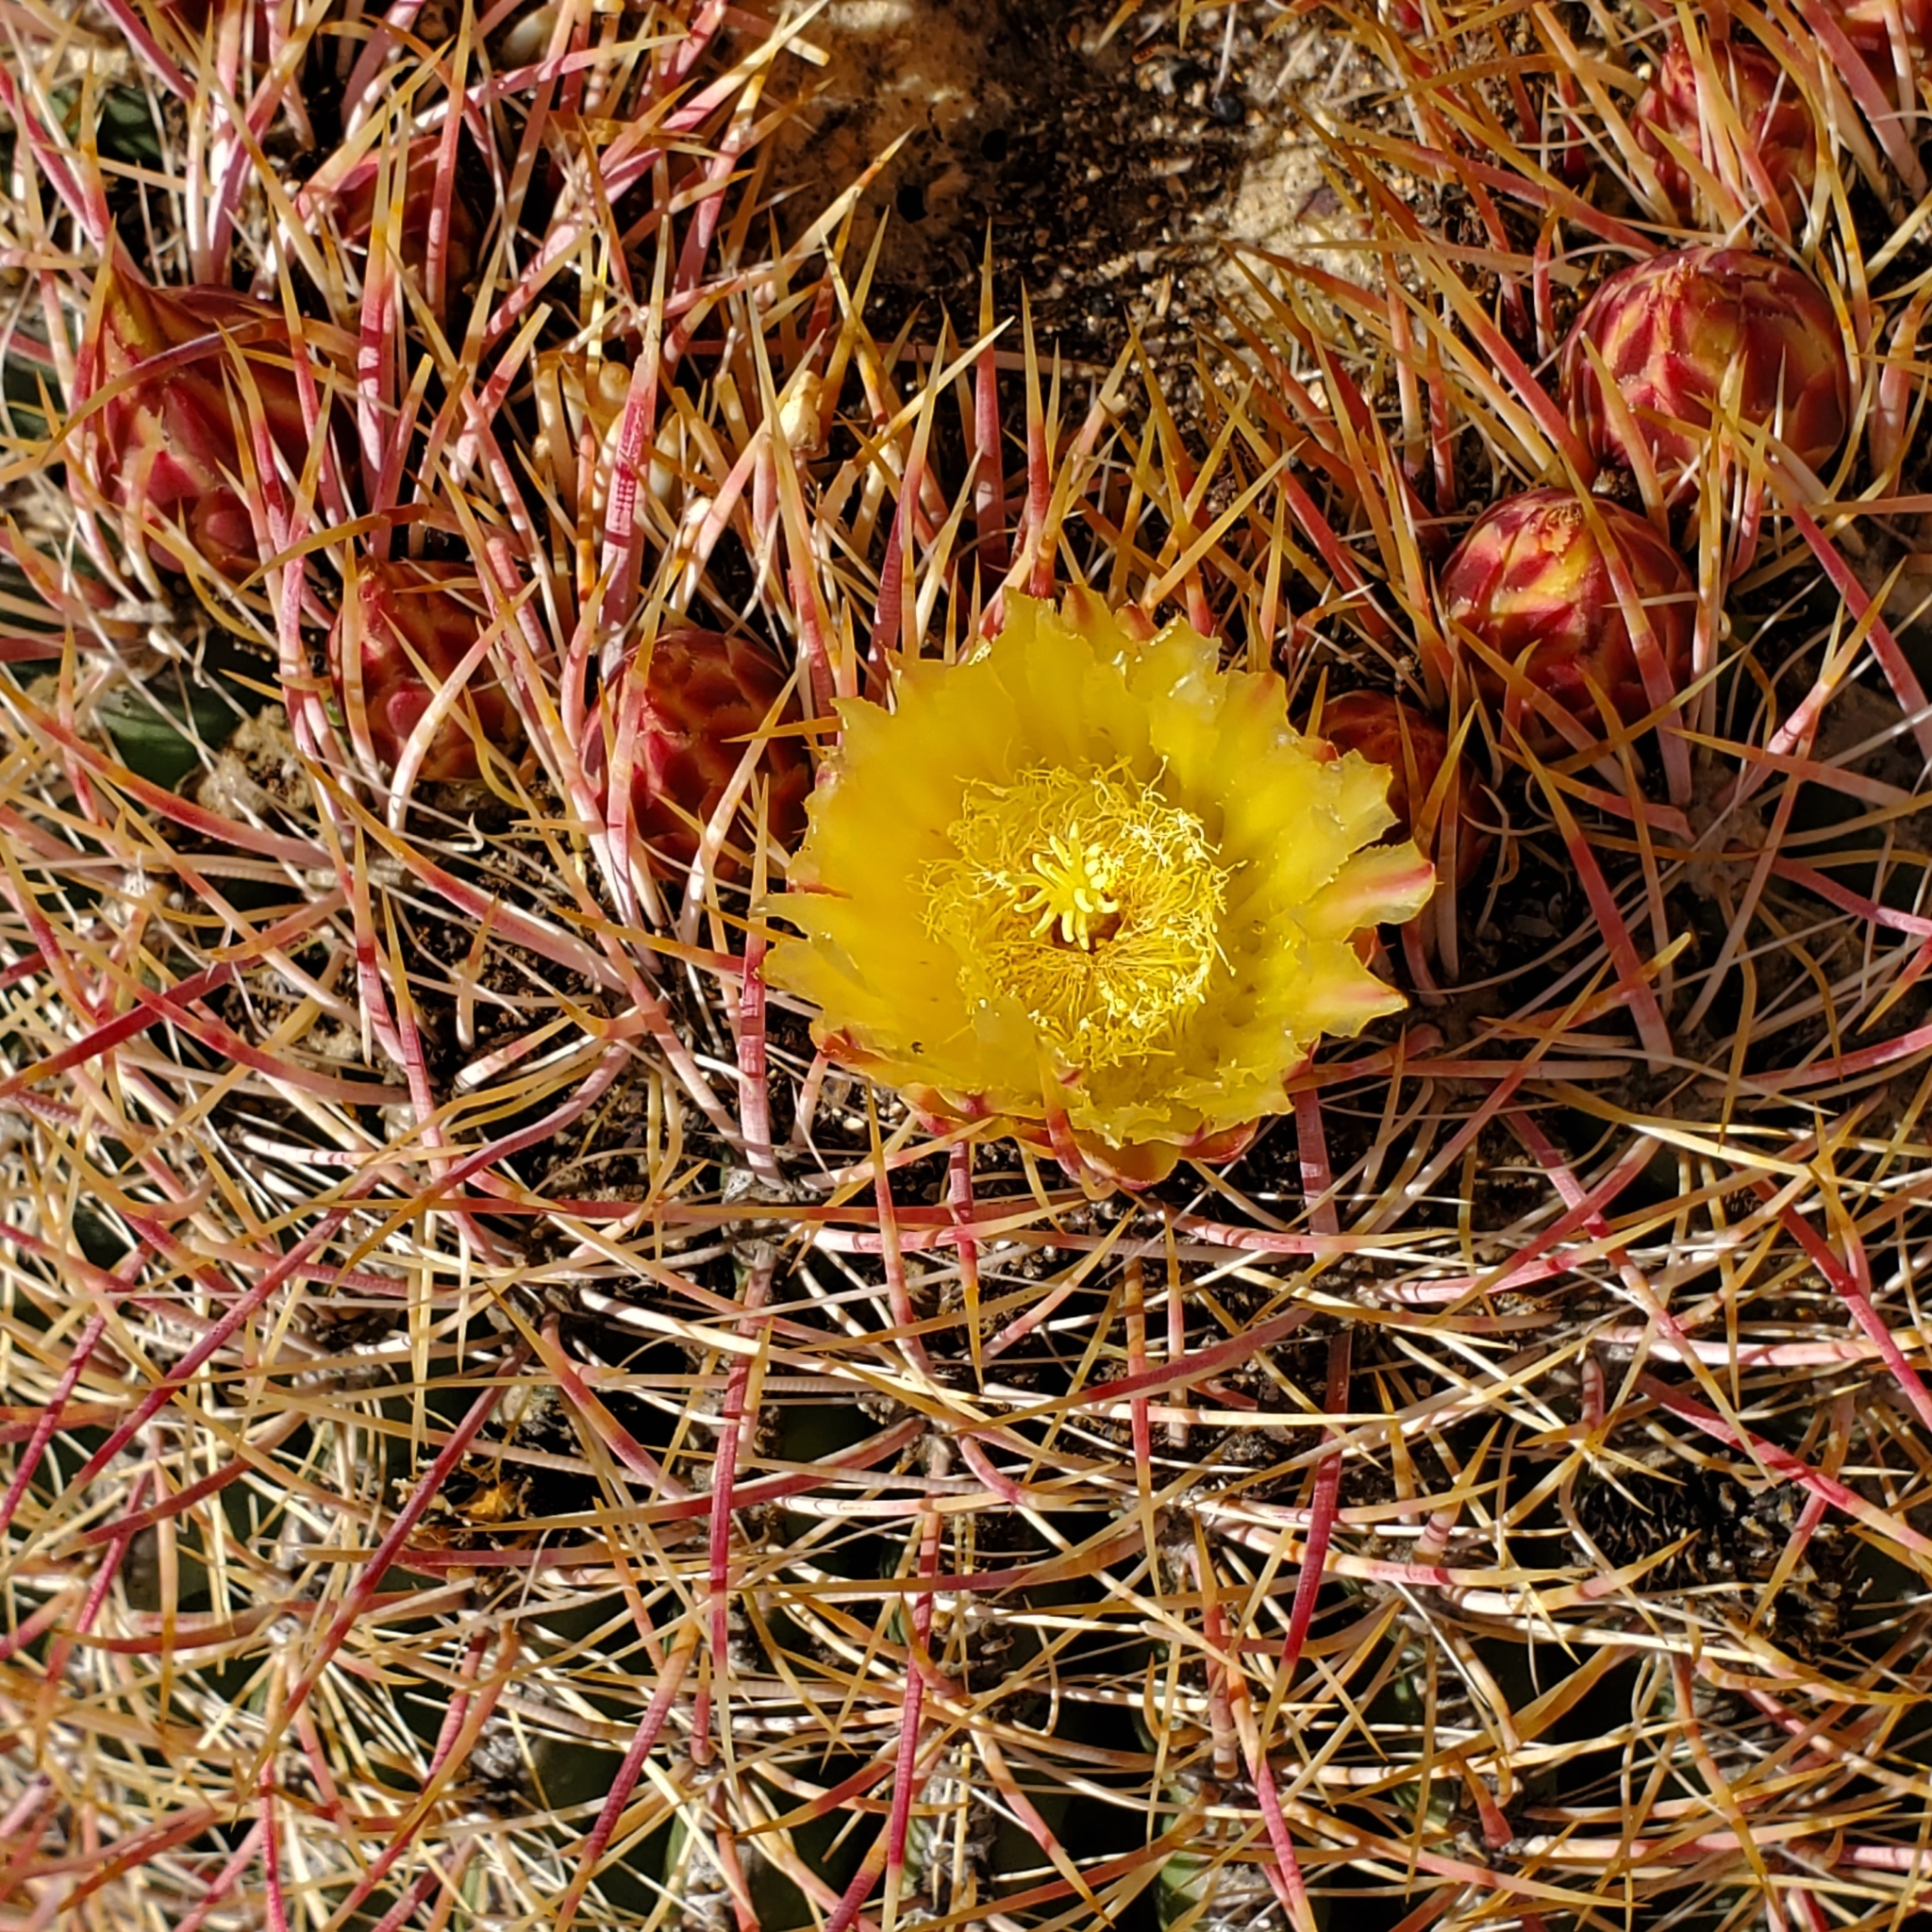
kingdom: Plantae
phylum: Tracheophyta
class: Magnoliopsida
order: Caryophyllales
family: Cactaceae
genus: Ferocactus
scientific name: Ferocactus cylindraceus
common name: California barrel cactus
